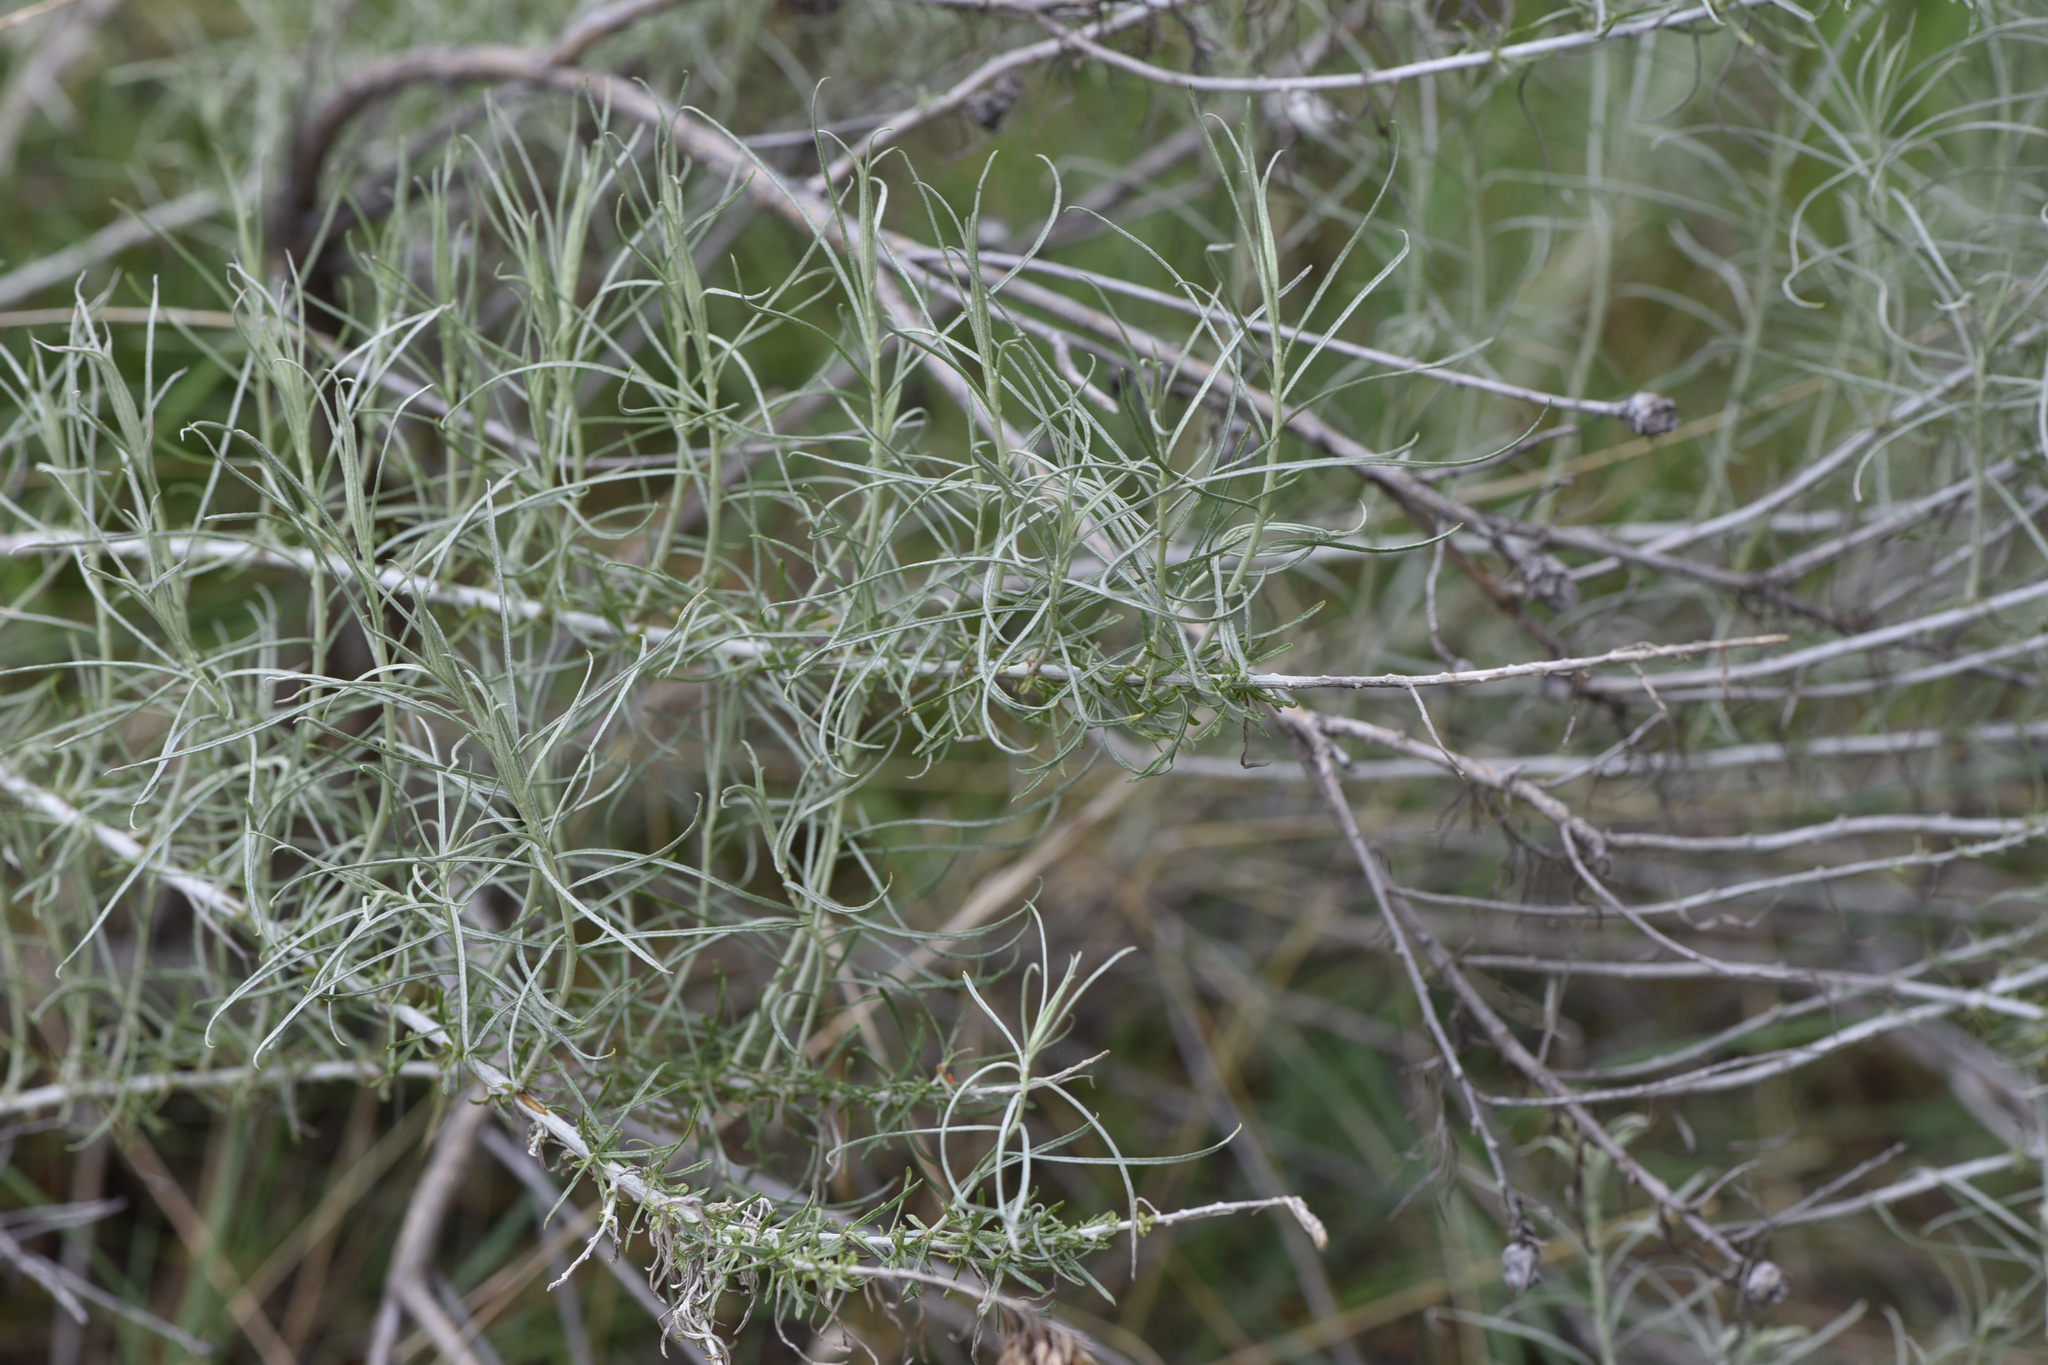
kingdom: Plantae
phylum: Tracheophyta
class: Magnoliopsida
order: Asterales
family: Asteraceae
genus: Ericameria
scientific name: Ericameria nauseosa
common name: Rubber rabbitbrush
